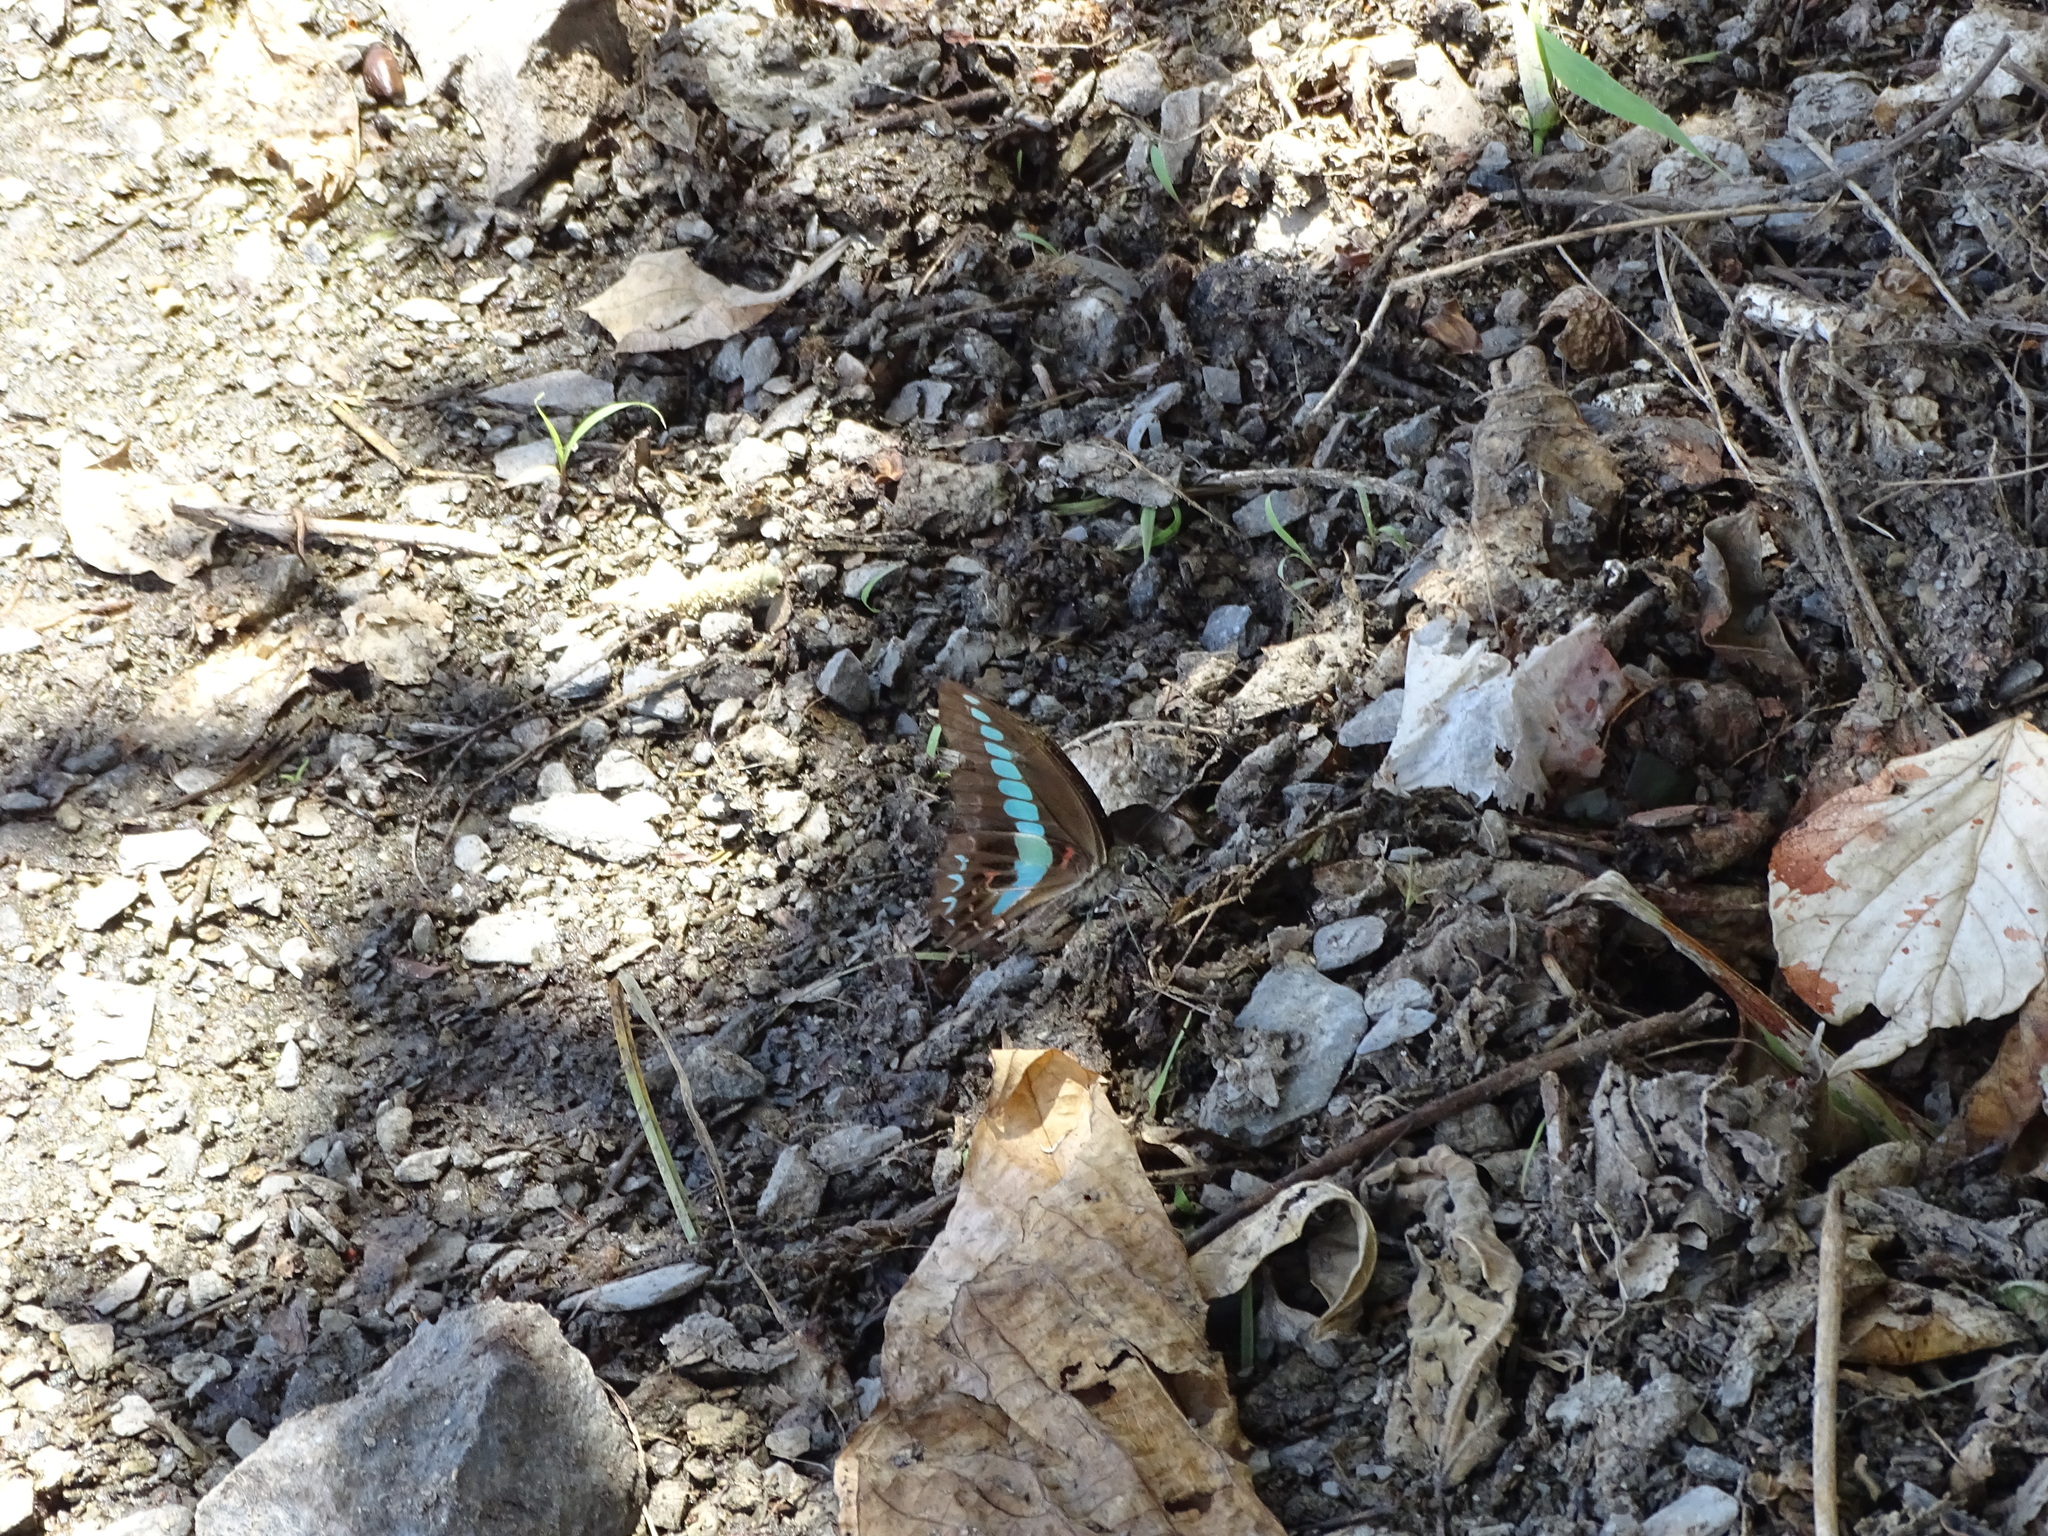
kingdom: Fungi
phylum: Ascomycota
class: Sordariomycetes
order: Microascales
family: Microascaceae
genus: Graphium
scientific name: Graphium sarpedon
